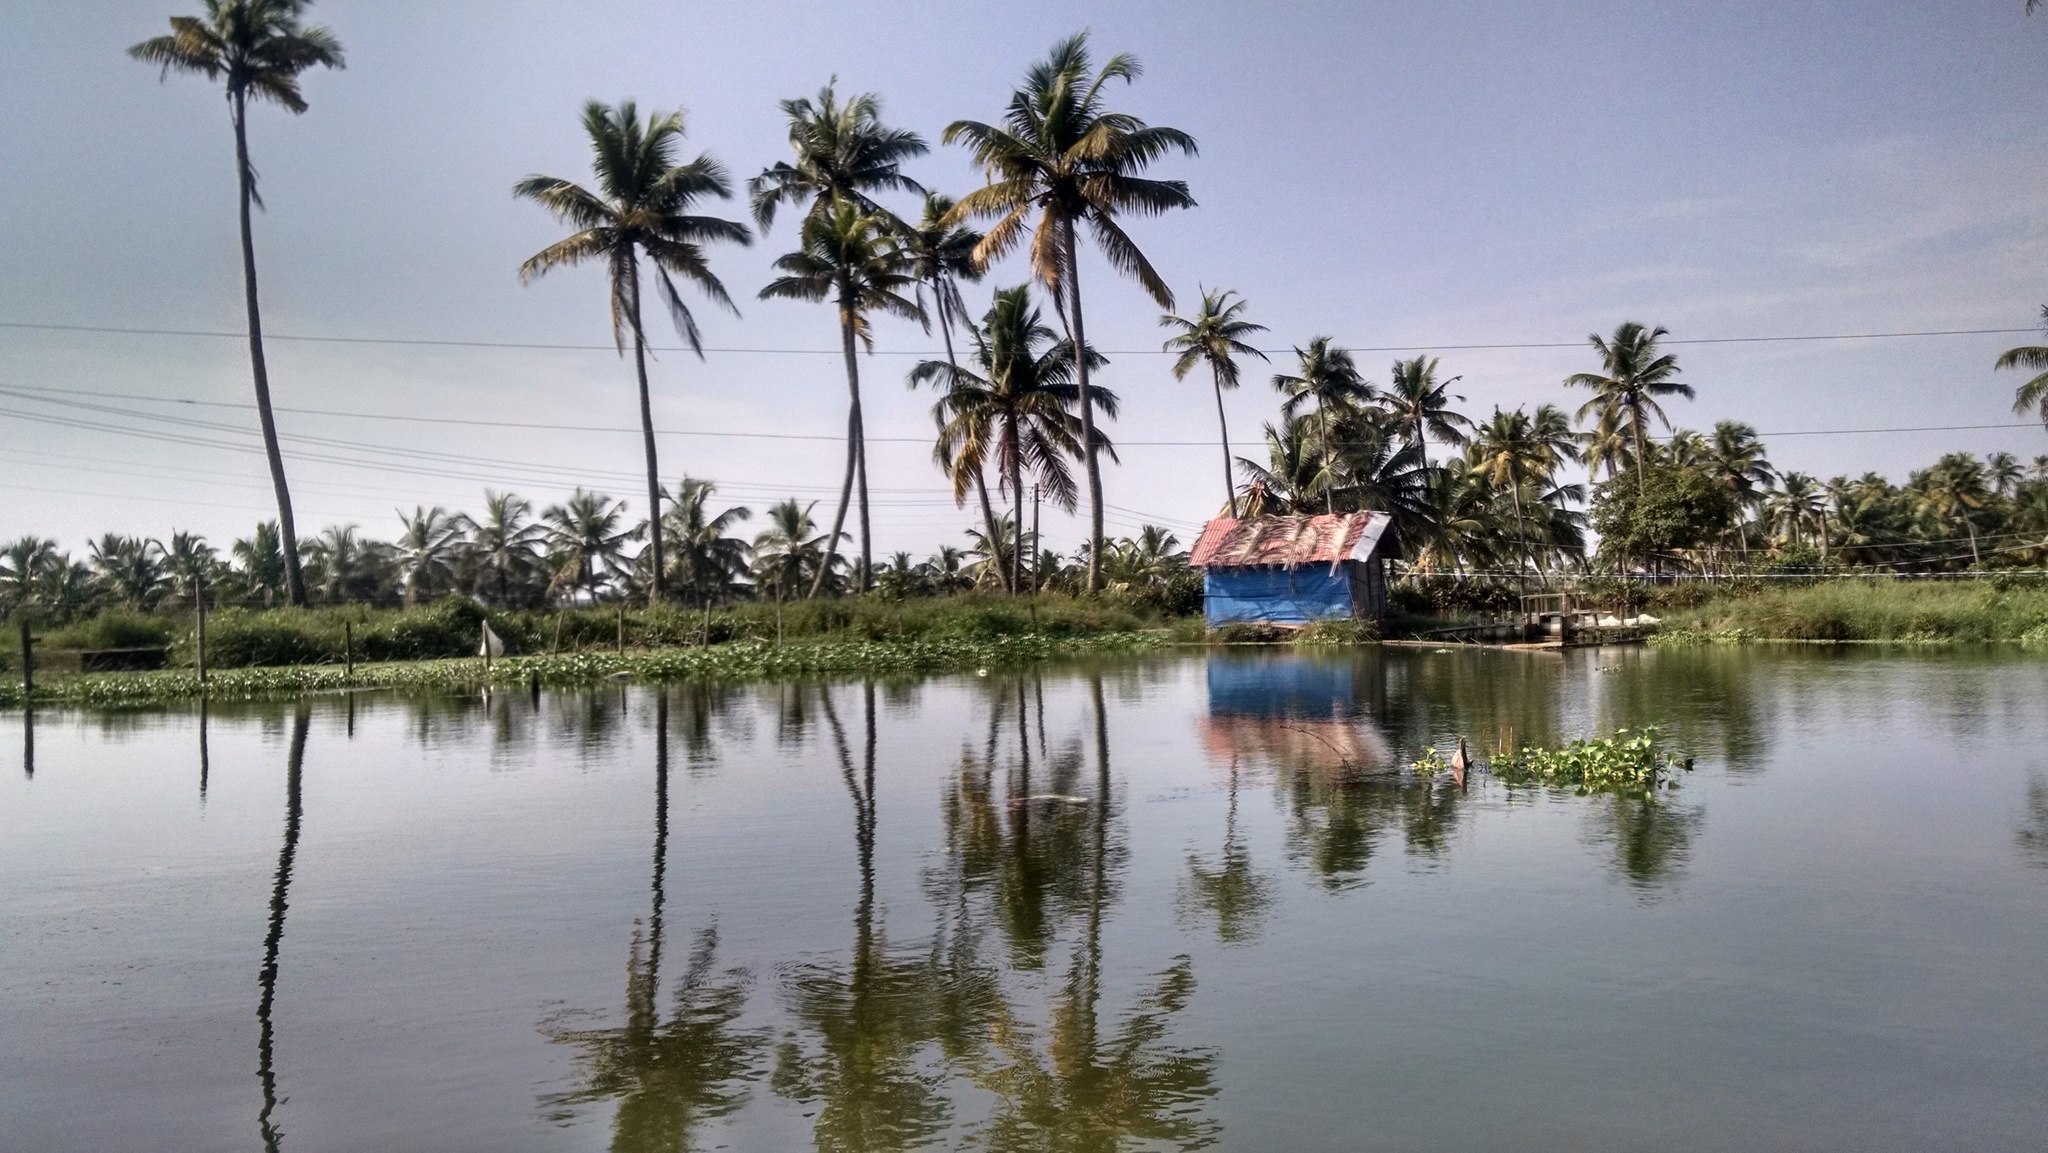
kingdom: Plantae
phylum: Tracheophyta
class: Liliopsida
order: Arecales
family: Arecaceae
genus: Cocos
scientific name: Cocos nucifera
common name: Coconut palm
